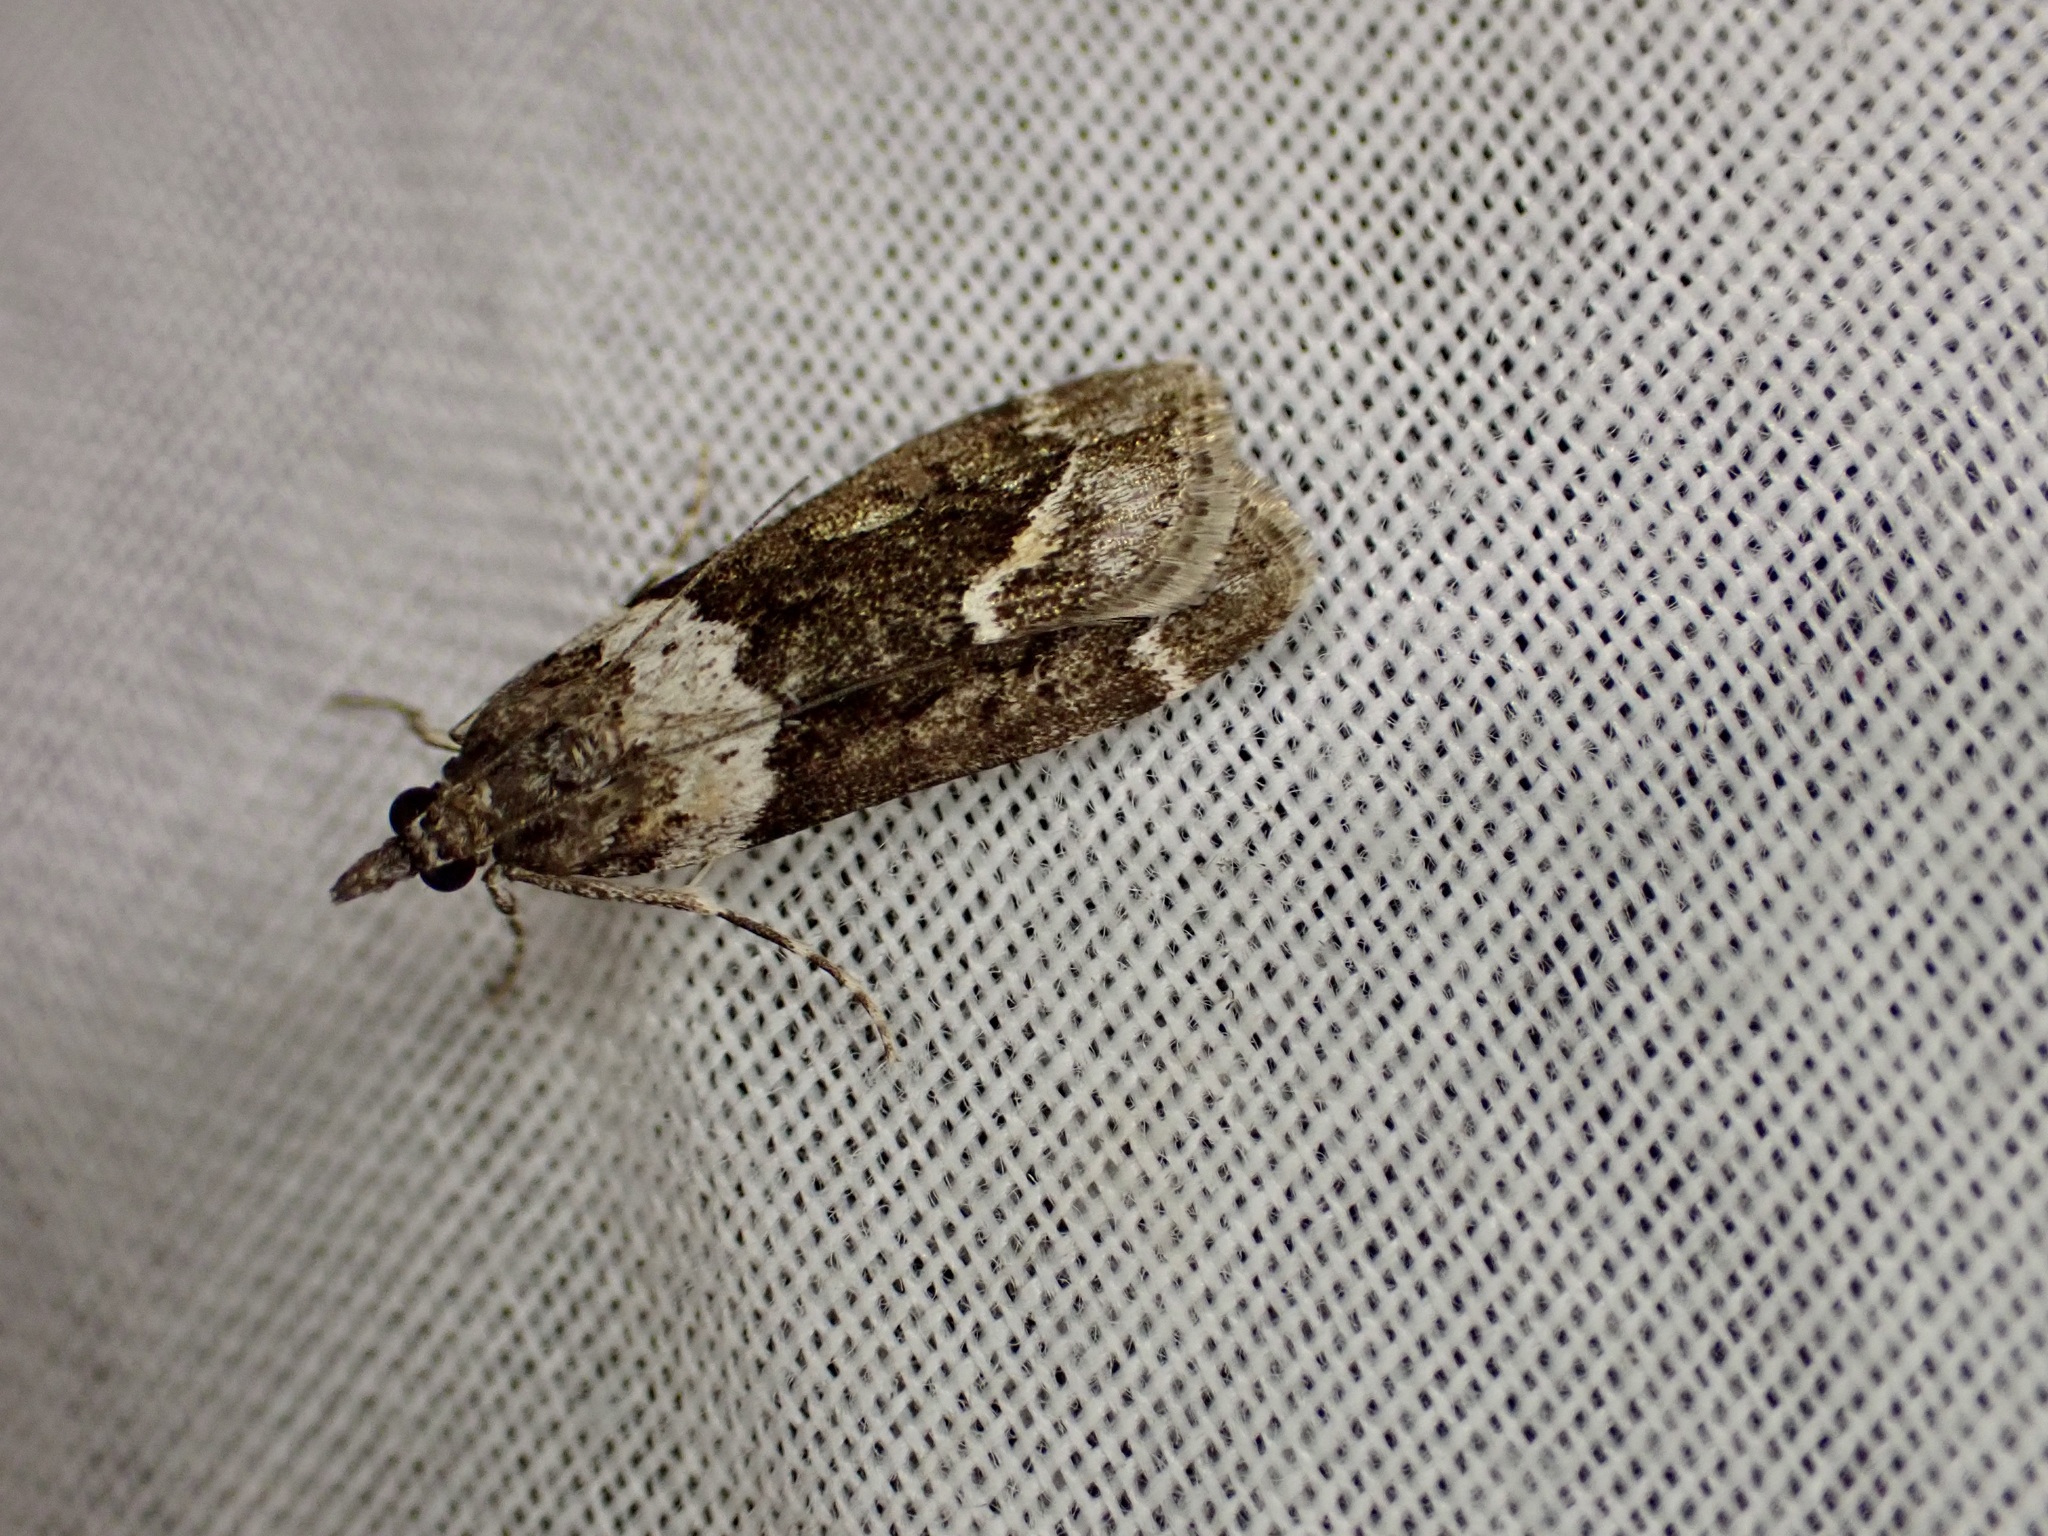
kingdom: Animalia
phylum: Arthropoda
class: Insecta
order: Lepidoptera
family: Crambidae
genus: Eudonia
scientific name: Eudonia submarginalis
